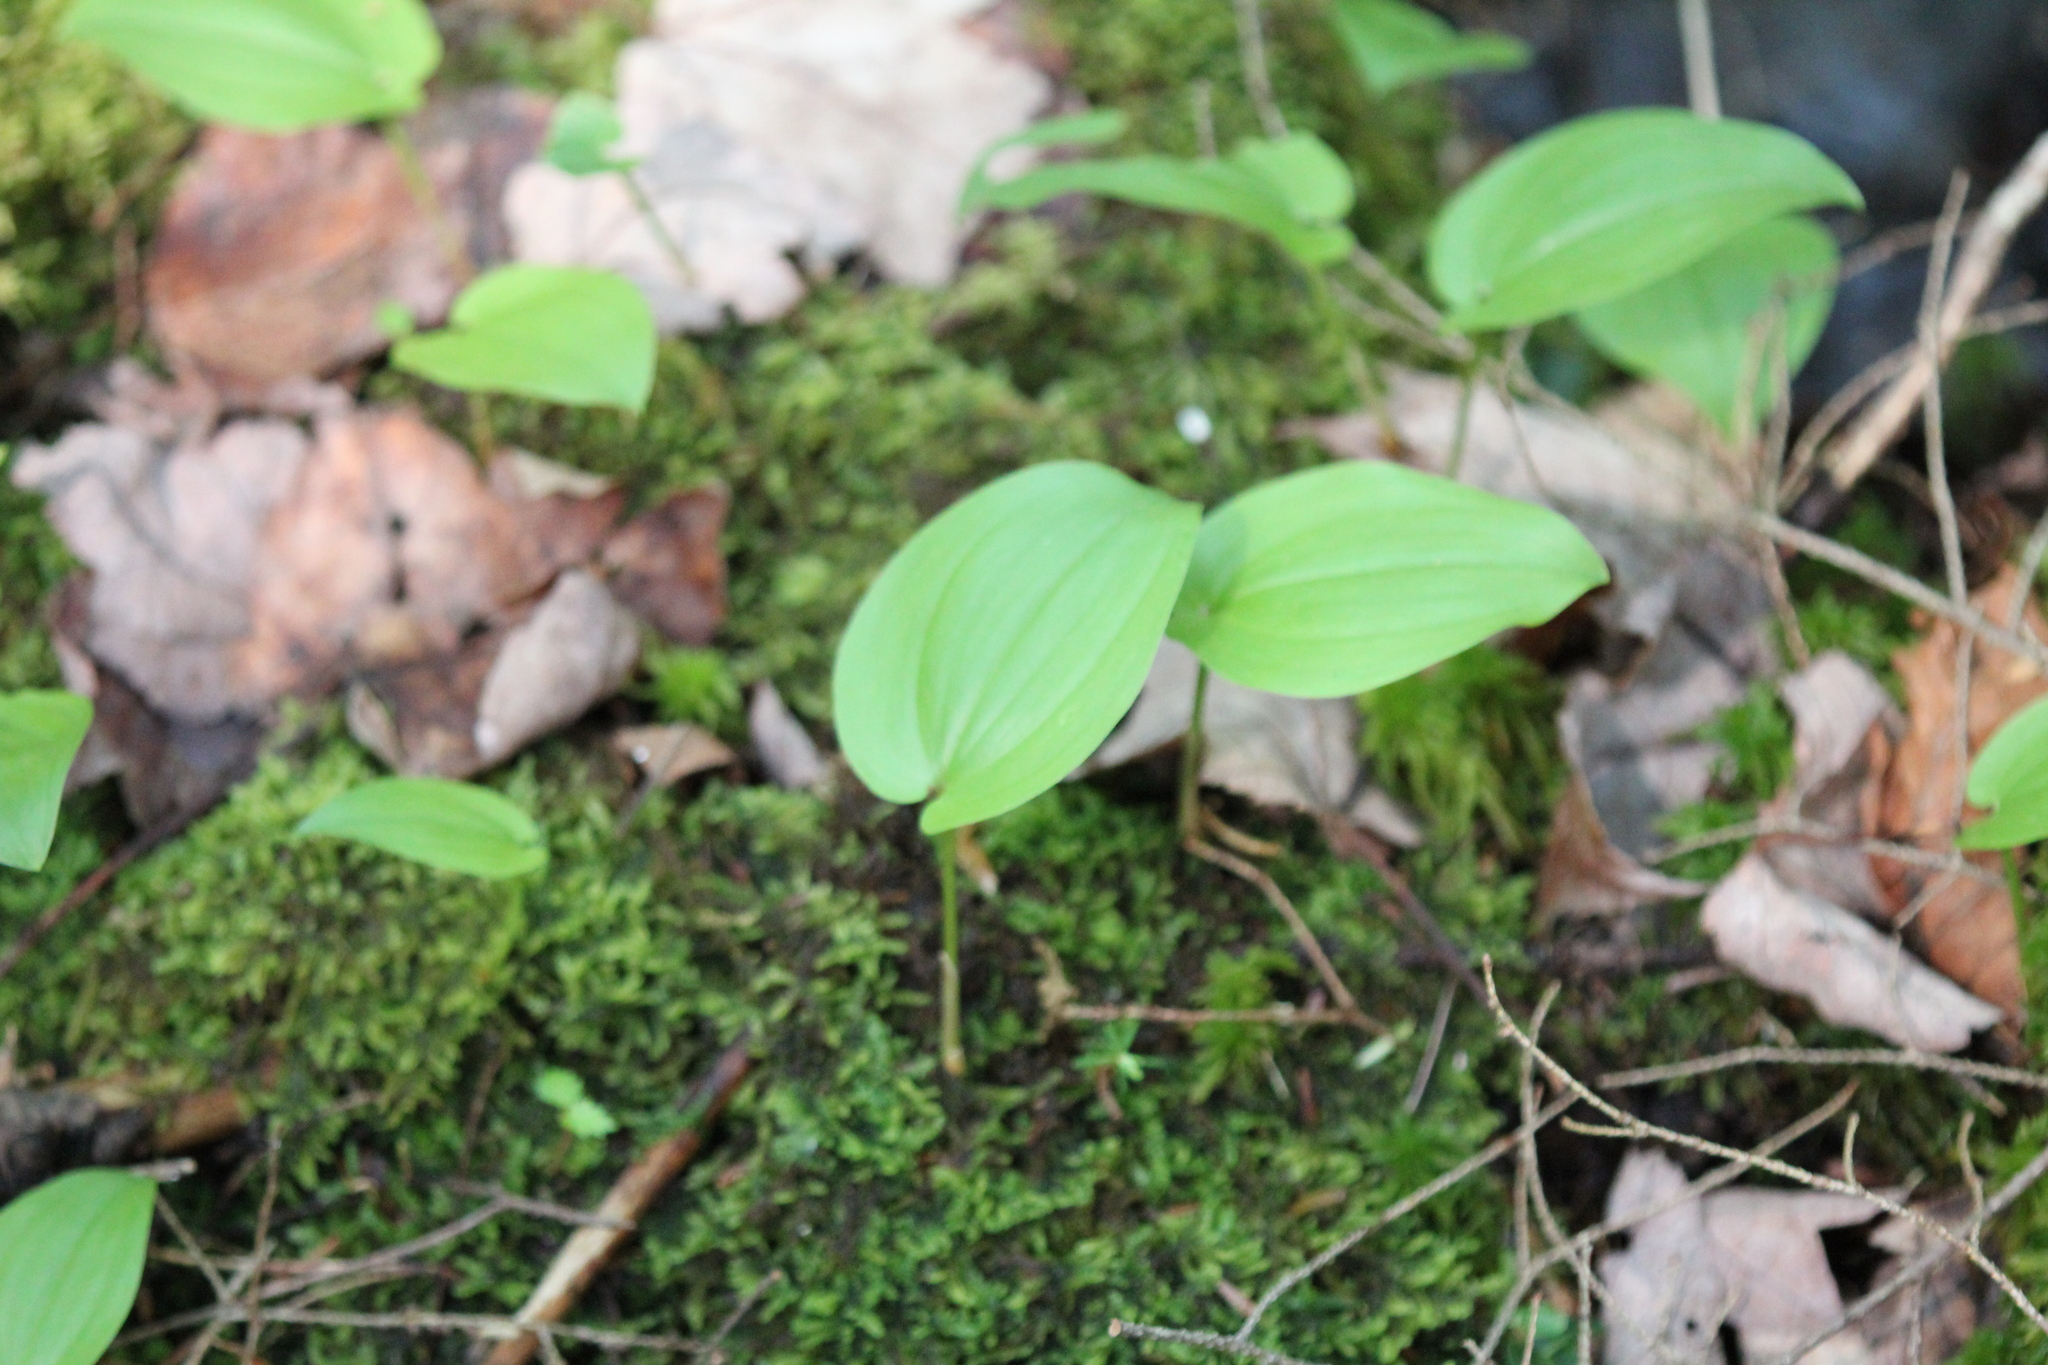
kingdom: Plantae
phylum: Tracheophyta
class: Liliopsida
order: Asparagales
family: Asparagaceae
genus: Maianthemum
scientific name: Maianthemum canadense
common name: False lily-of-the-valley
